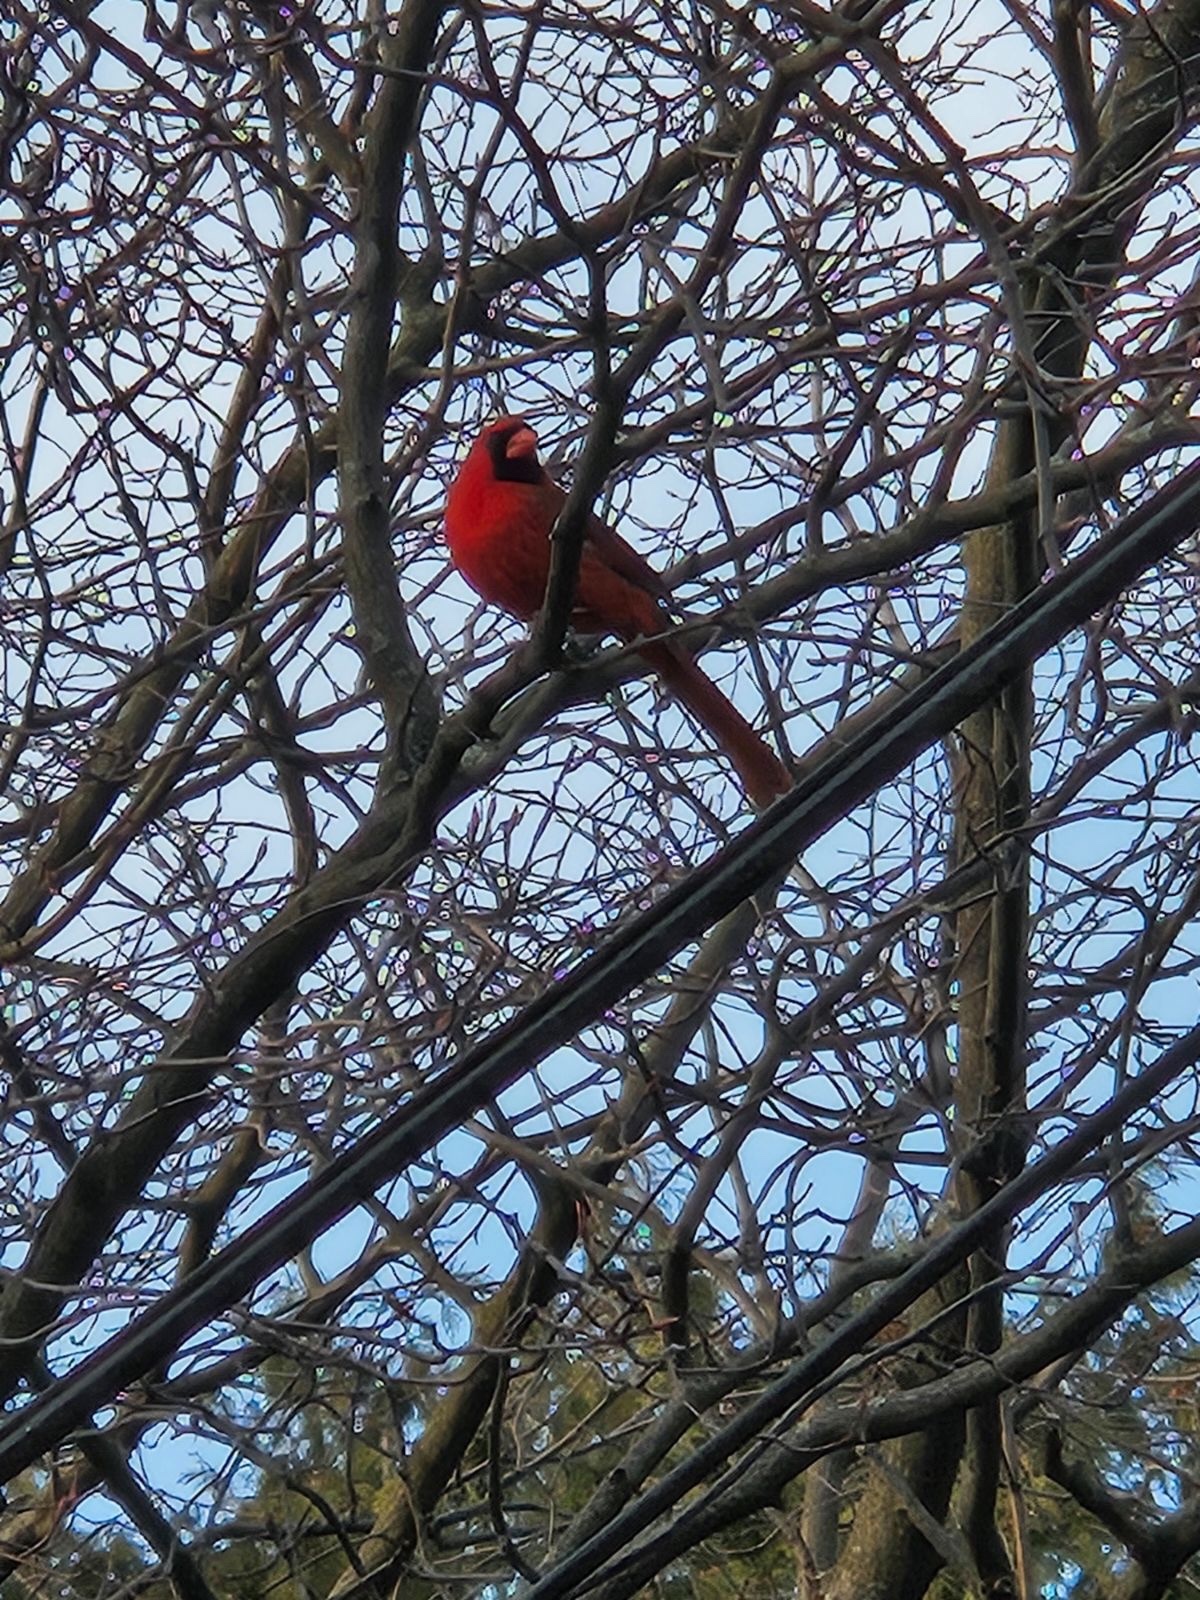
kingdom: Animalia
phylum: Chordata
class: Aves
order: Passeriformes
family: Cardinalidae
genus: Cardinalis
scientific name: Cardinalis cardinalis
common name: Northern cardinal
